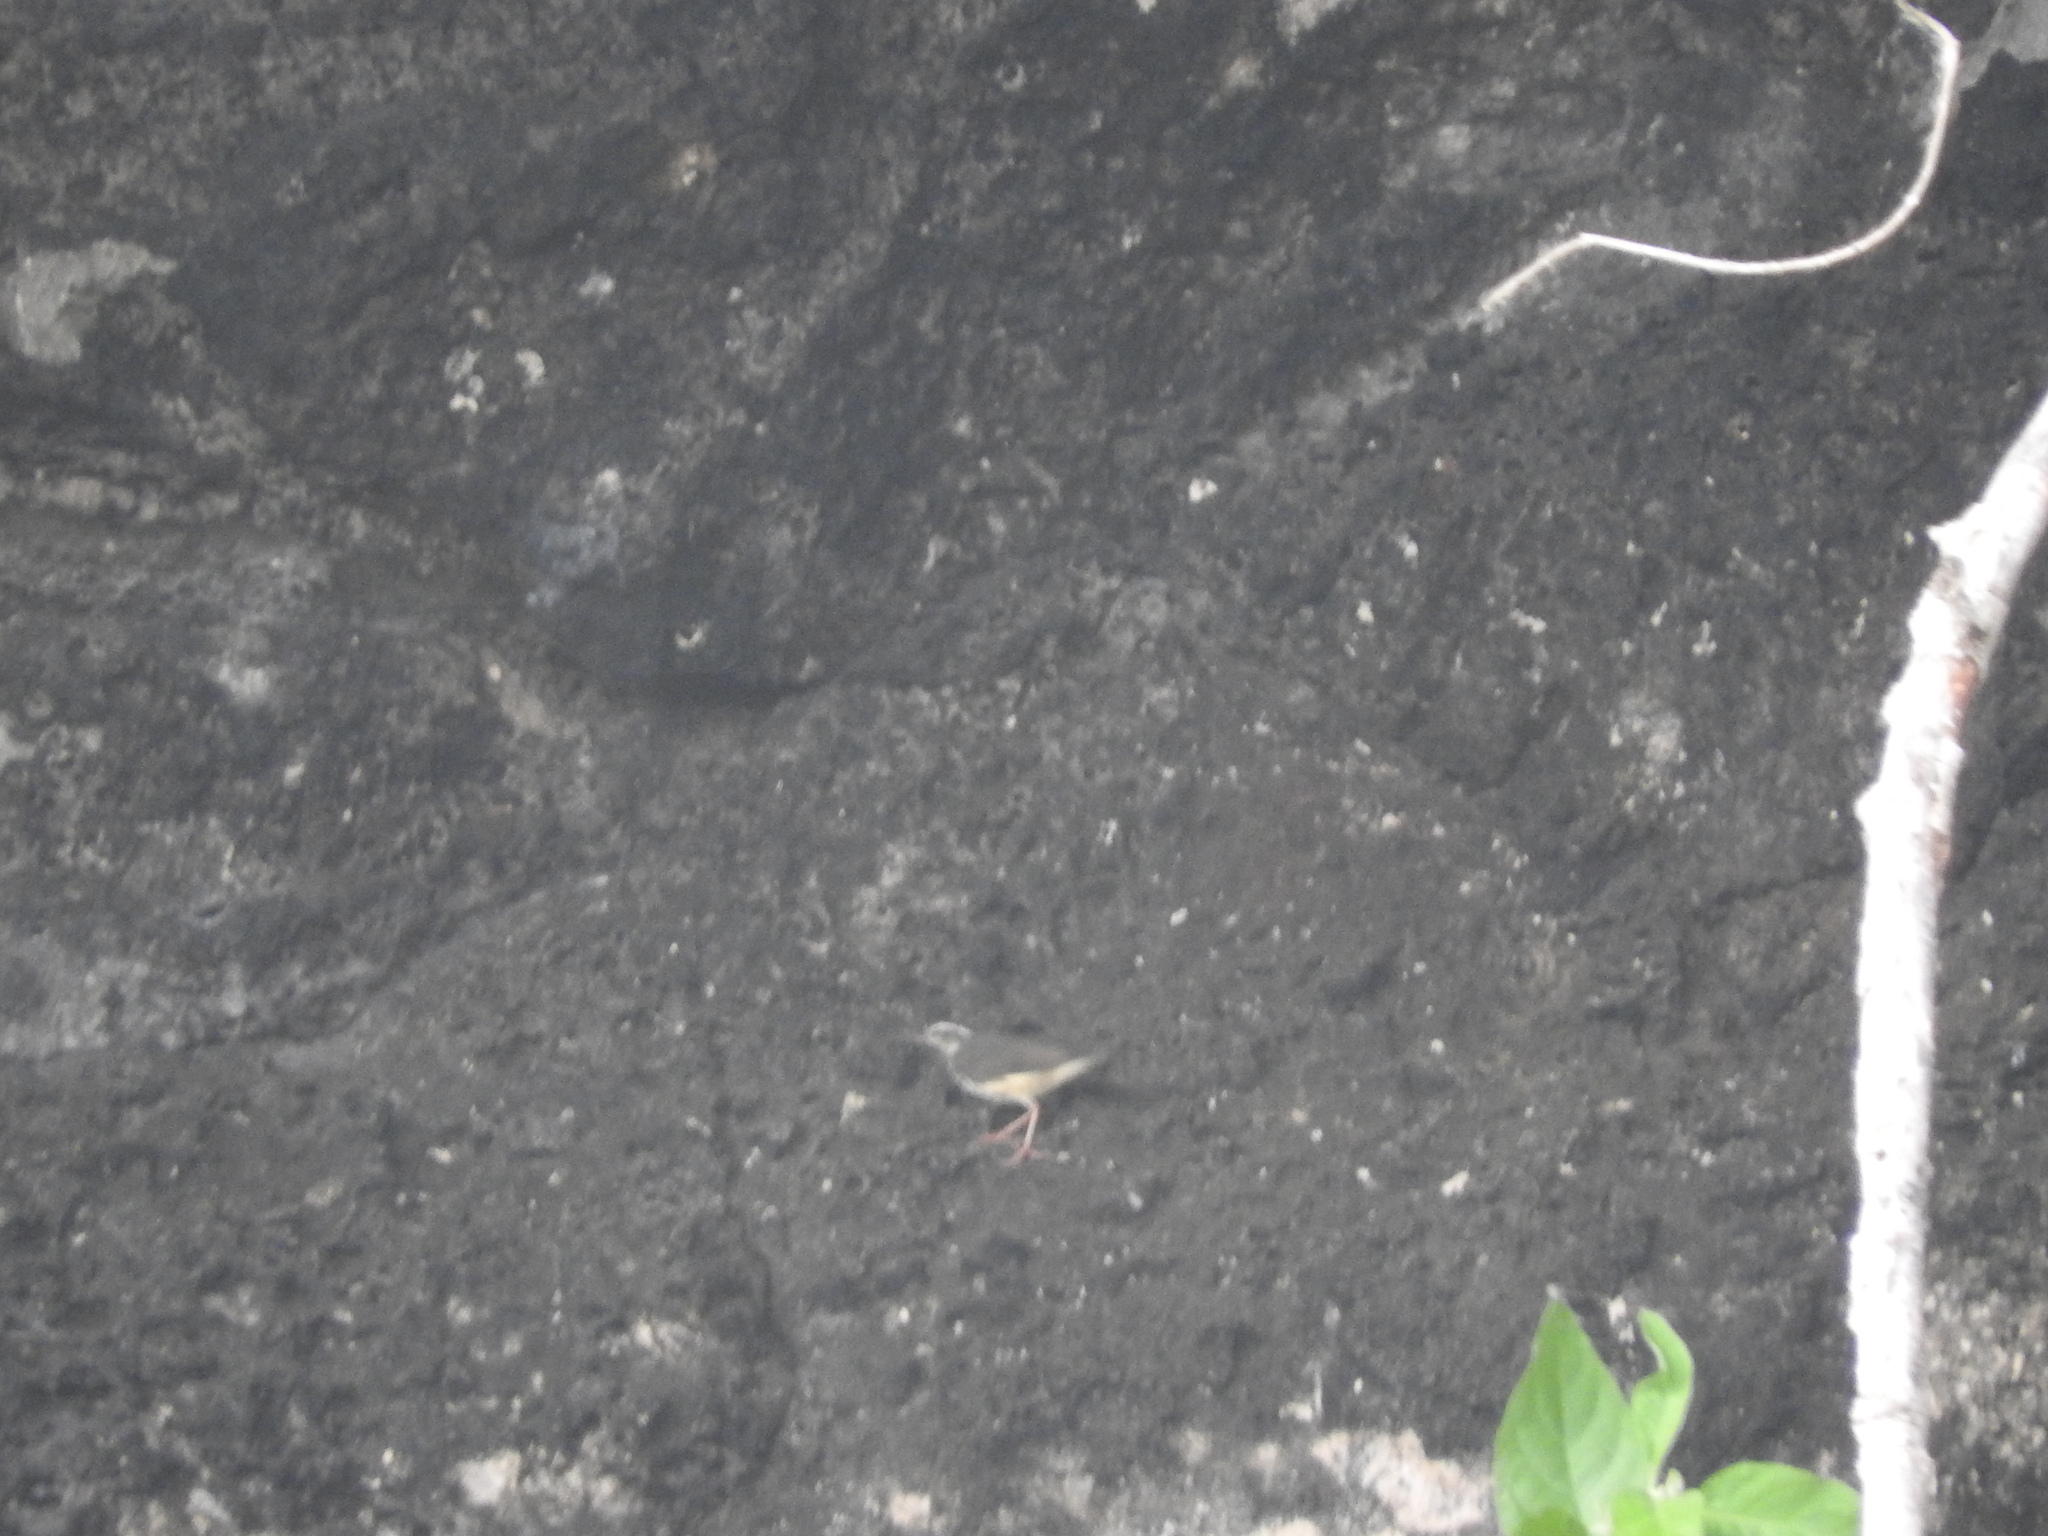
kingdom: Animalia
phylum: Chordata
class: Aves
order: Passeriformes
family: Parulidae
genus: Parkesia
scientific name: Parkesia motacilla
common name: Louisiana waterthrush
